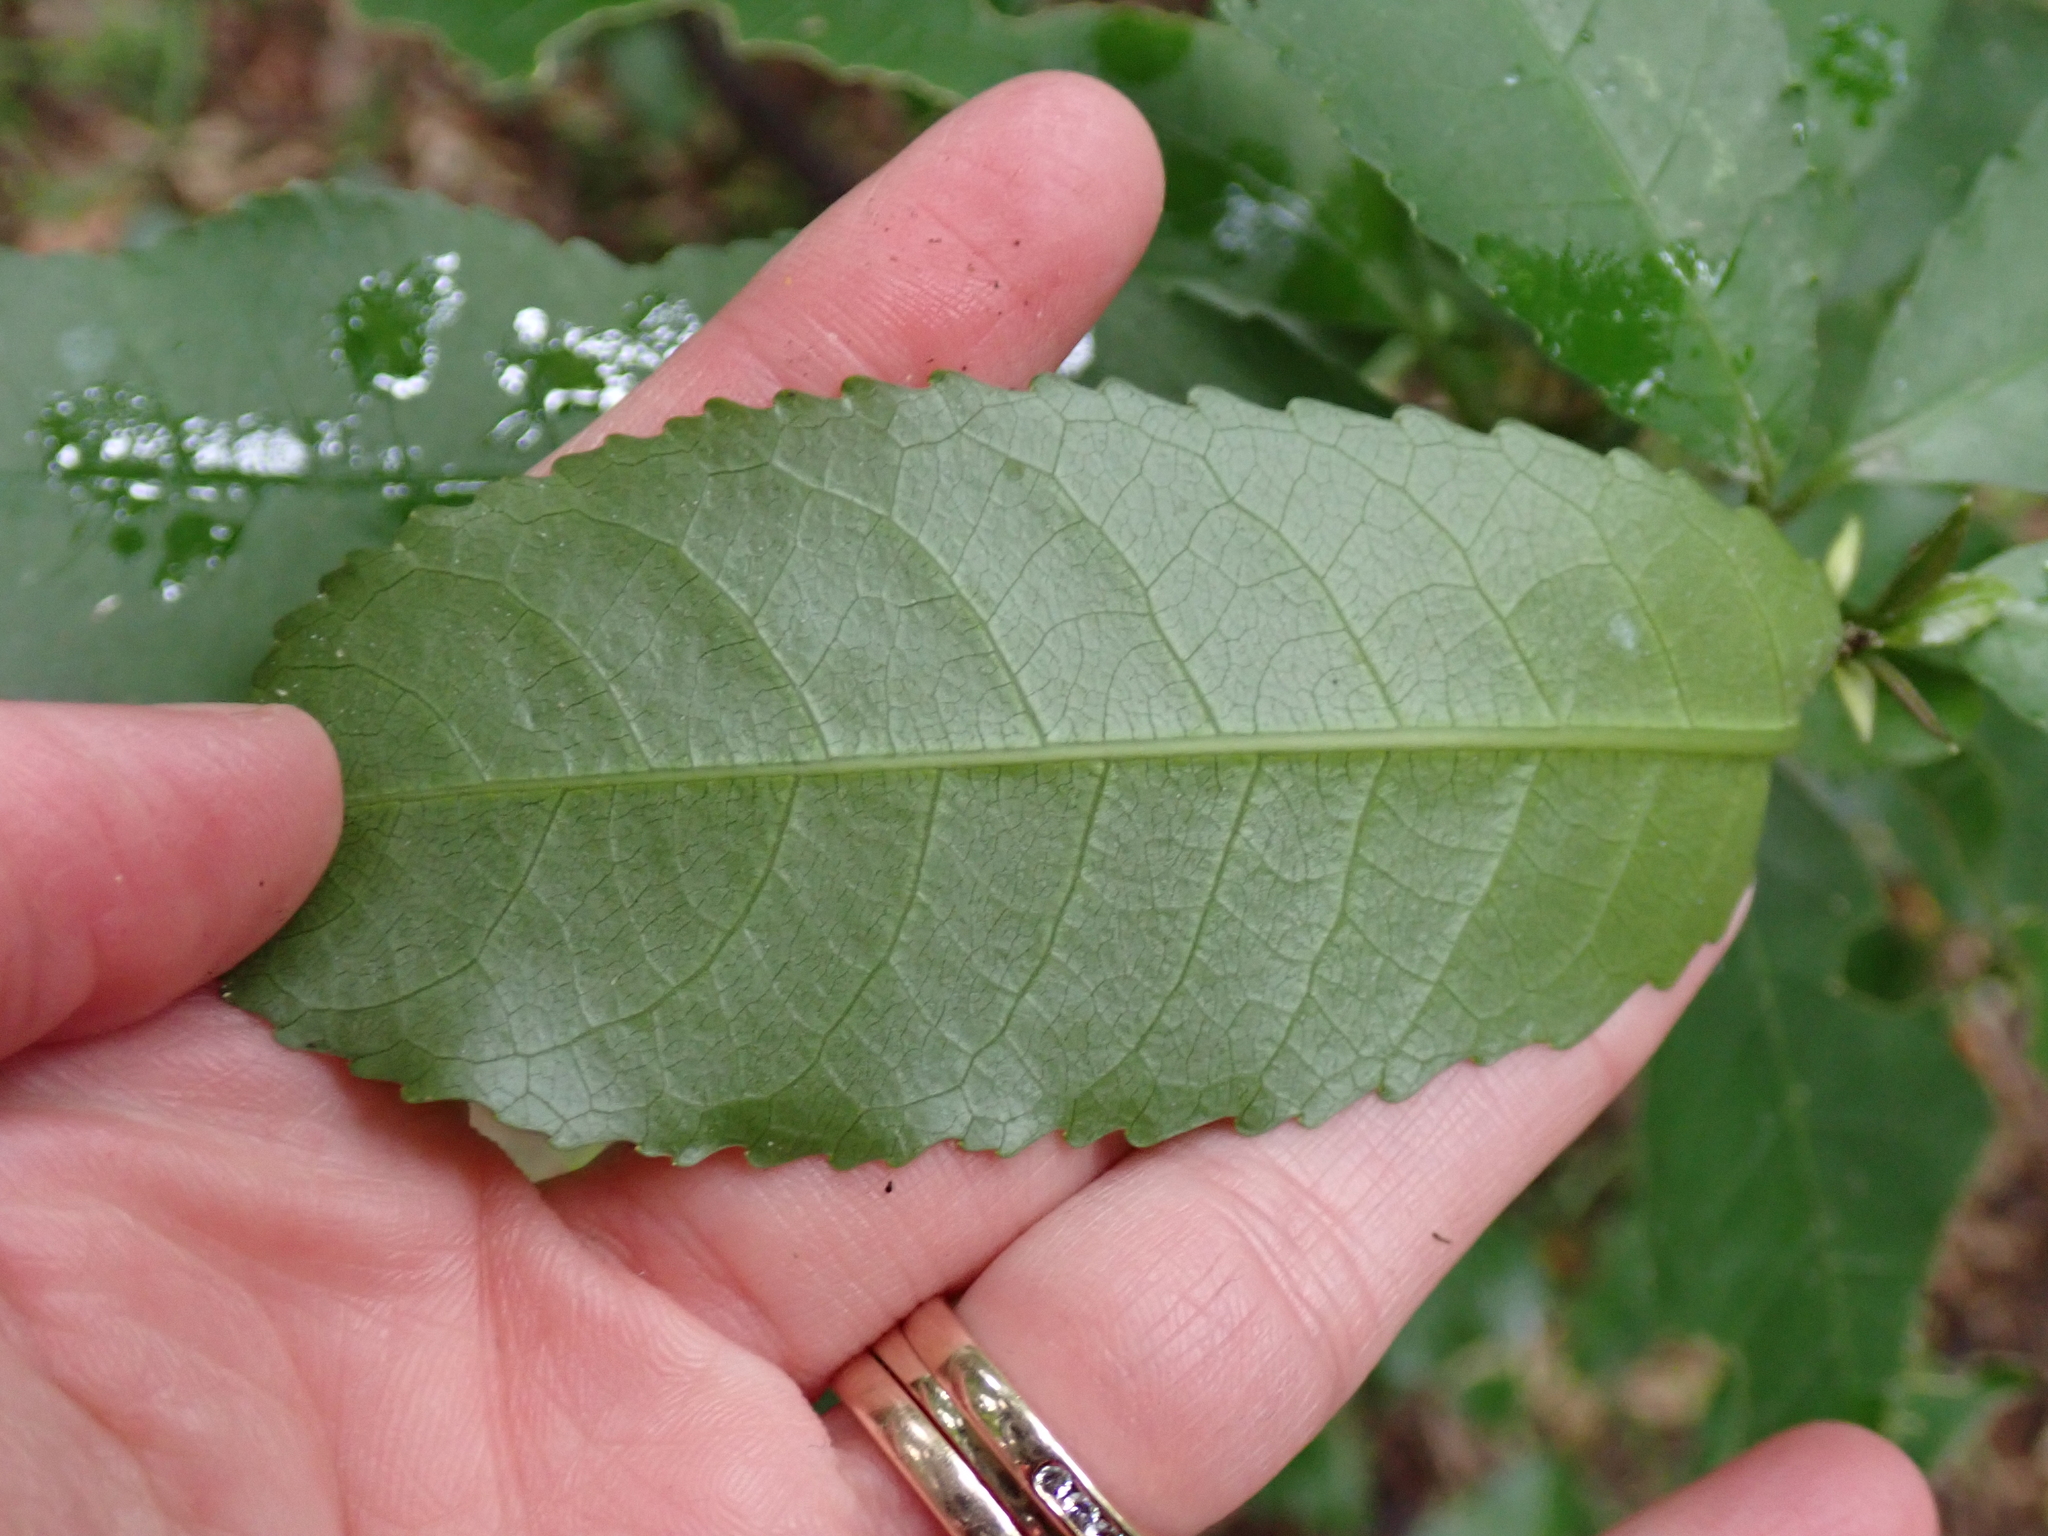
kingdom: Plantae
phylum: Tracheophyta
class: Magnoliopsida
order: Malpighiales
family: Violaceae
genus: Melicytus
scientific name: Melicytus ramiflorus
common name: Mahoe
